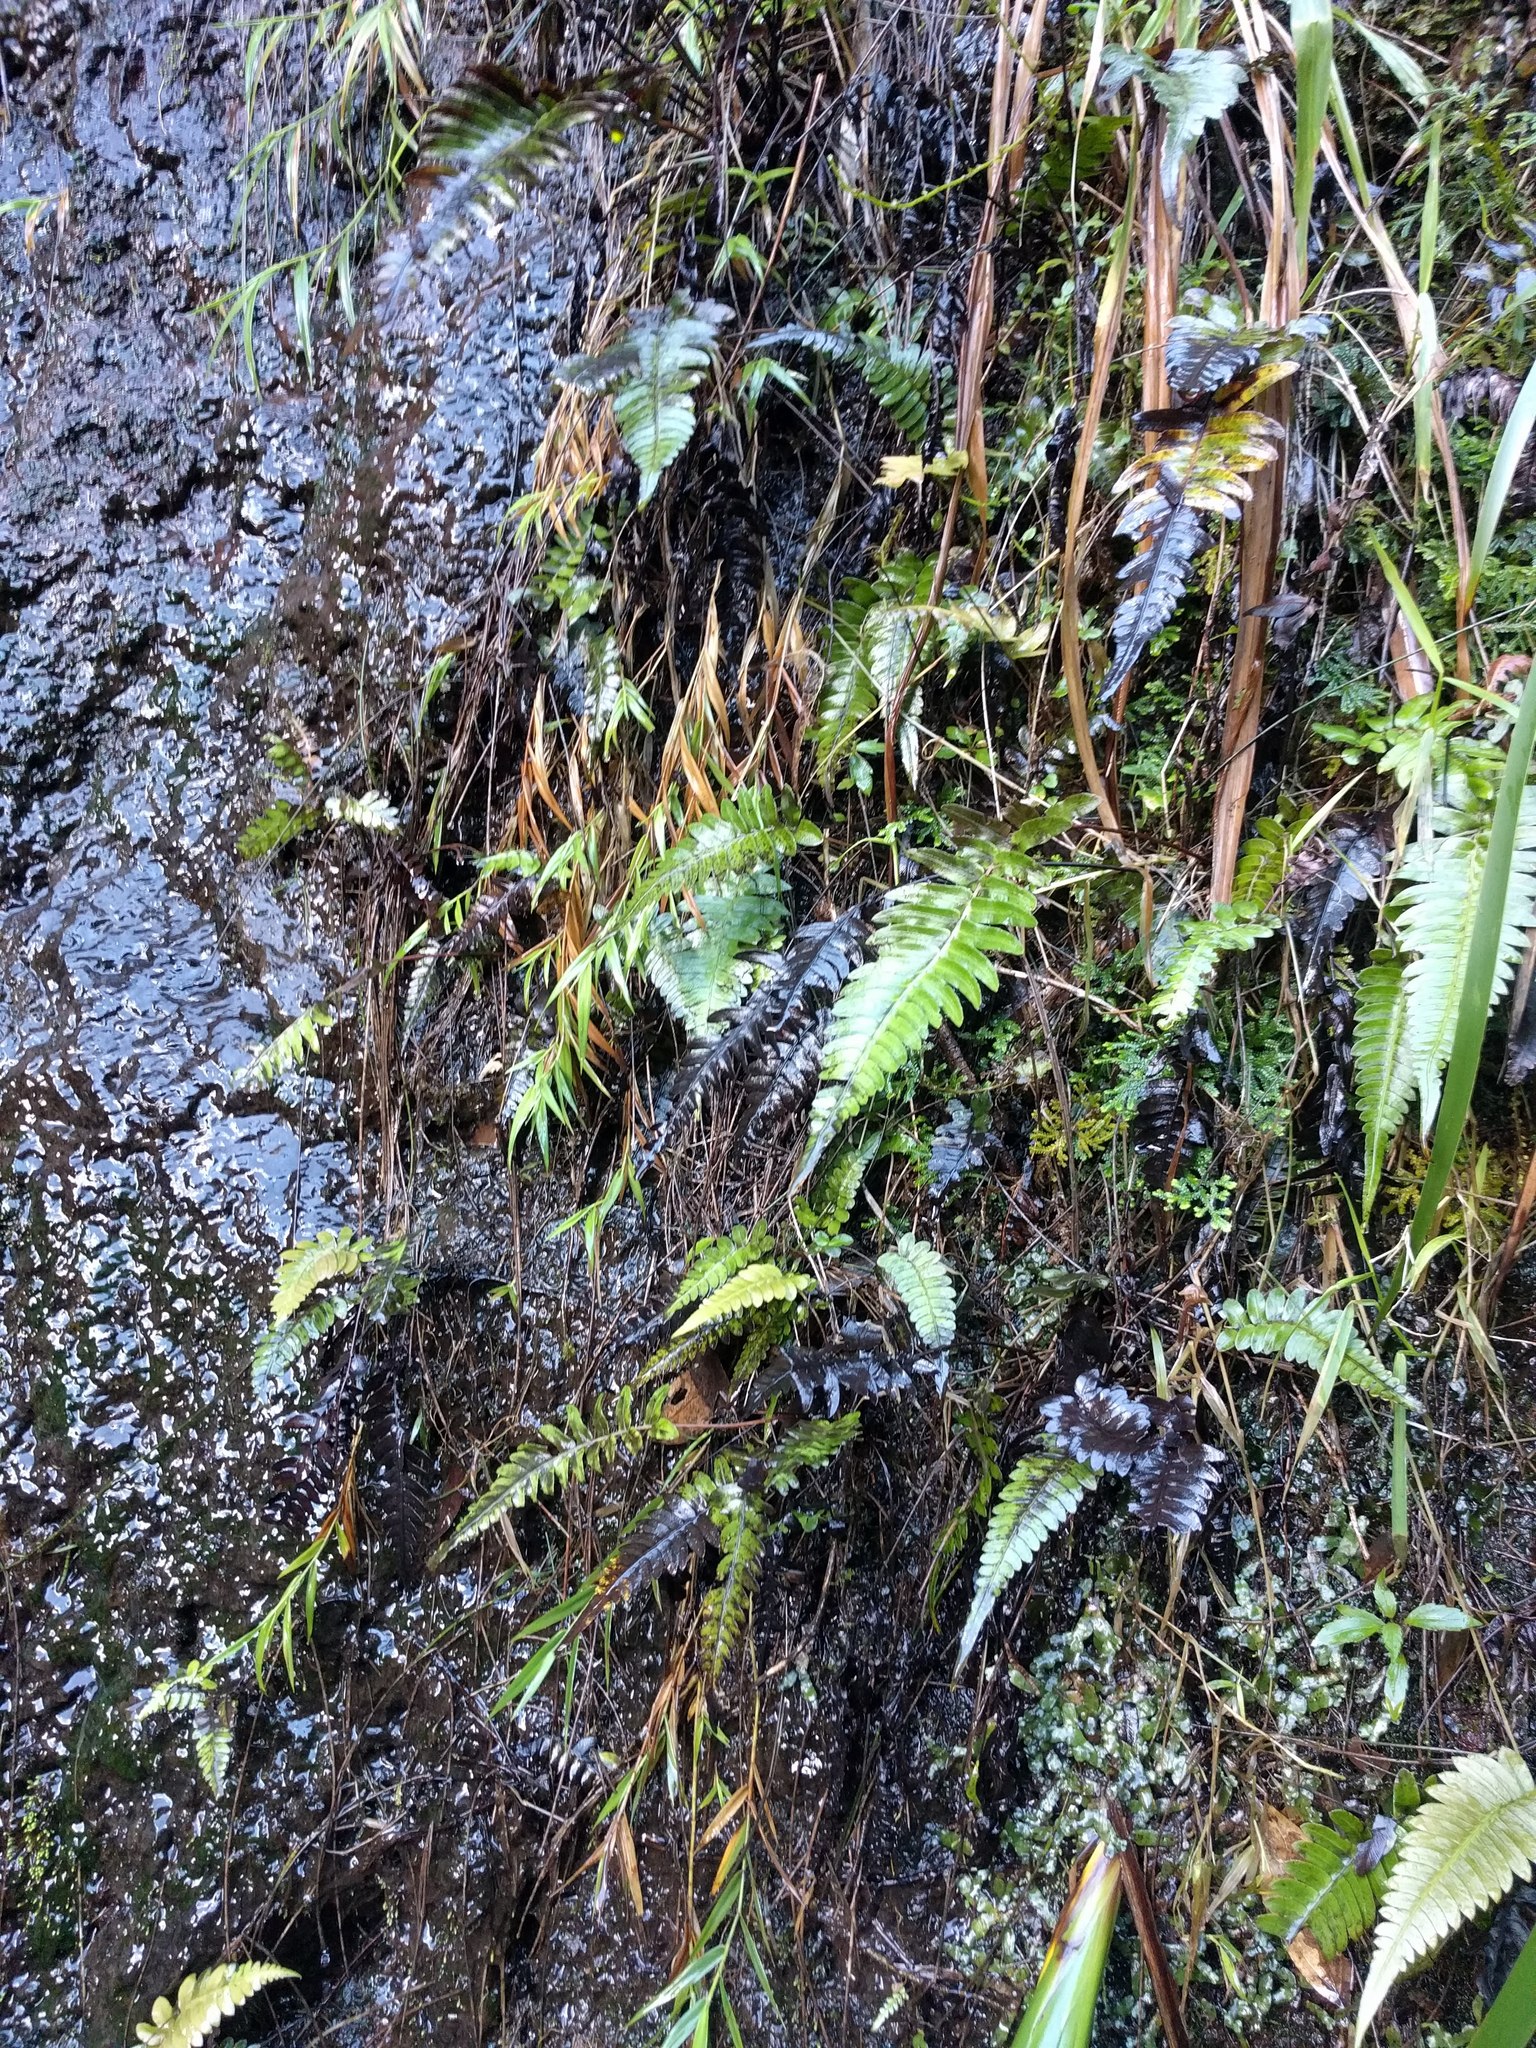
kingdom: Plantae
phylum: Tracheophyta
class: Liliopsida
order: Poales
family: Poaceae
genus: Isachne
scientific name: Isachne pallens
